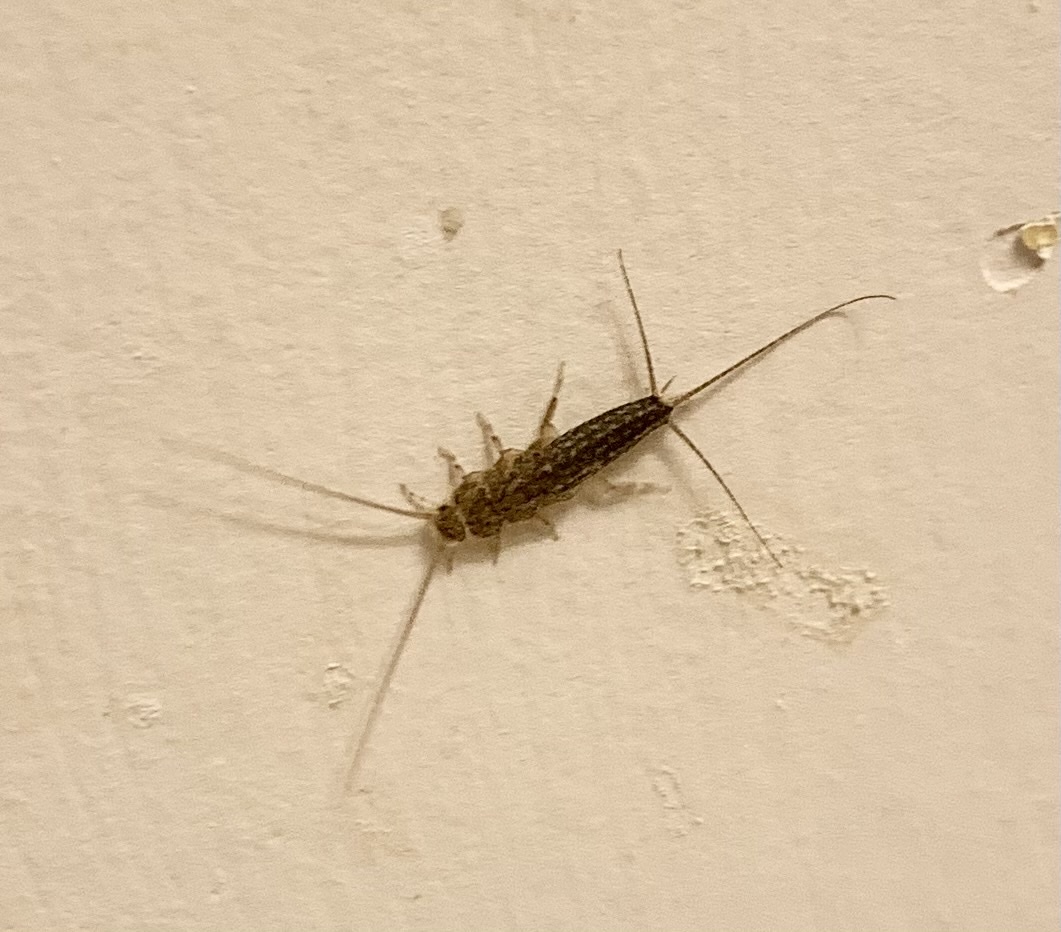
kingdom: Animalia
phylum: Arthropoda
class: Insecta
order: Zygentoma
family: Lepismatidae
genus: Ctenolepisma
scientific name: Ctenolepisma lineata
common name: Four-lined silverfish
